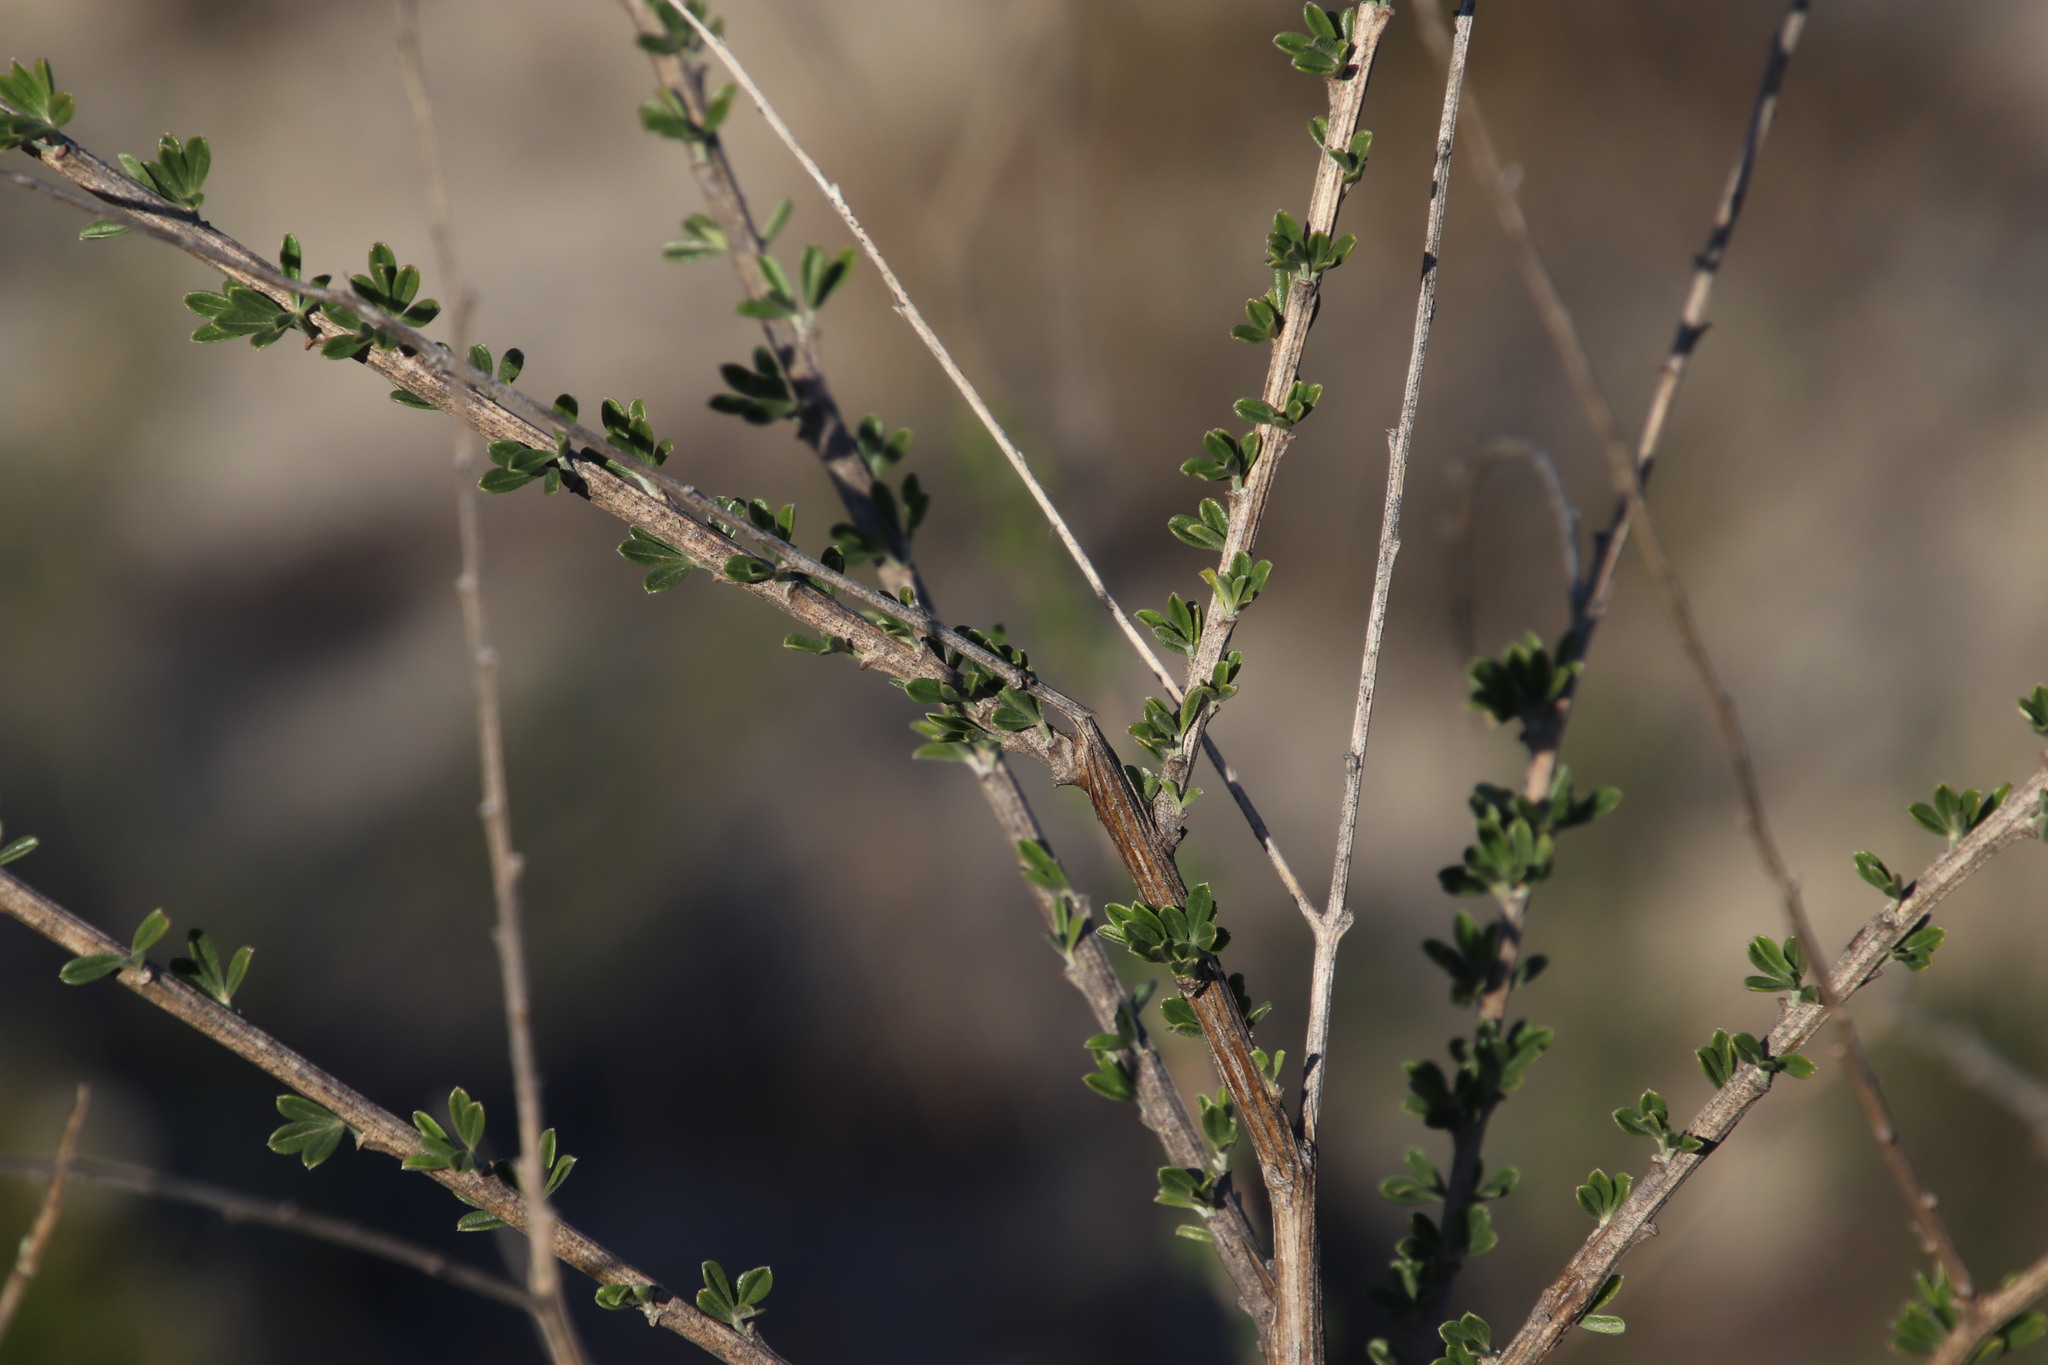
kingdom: Plantae
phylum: Tracheophyta
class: Magnoliopsida
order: Fabales
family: Fabaceae
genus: Wiborgia
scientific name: Wiborgia obcordata
